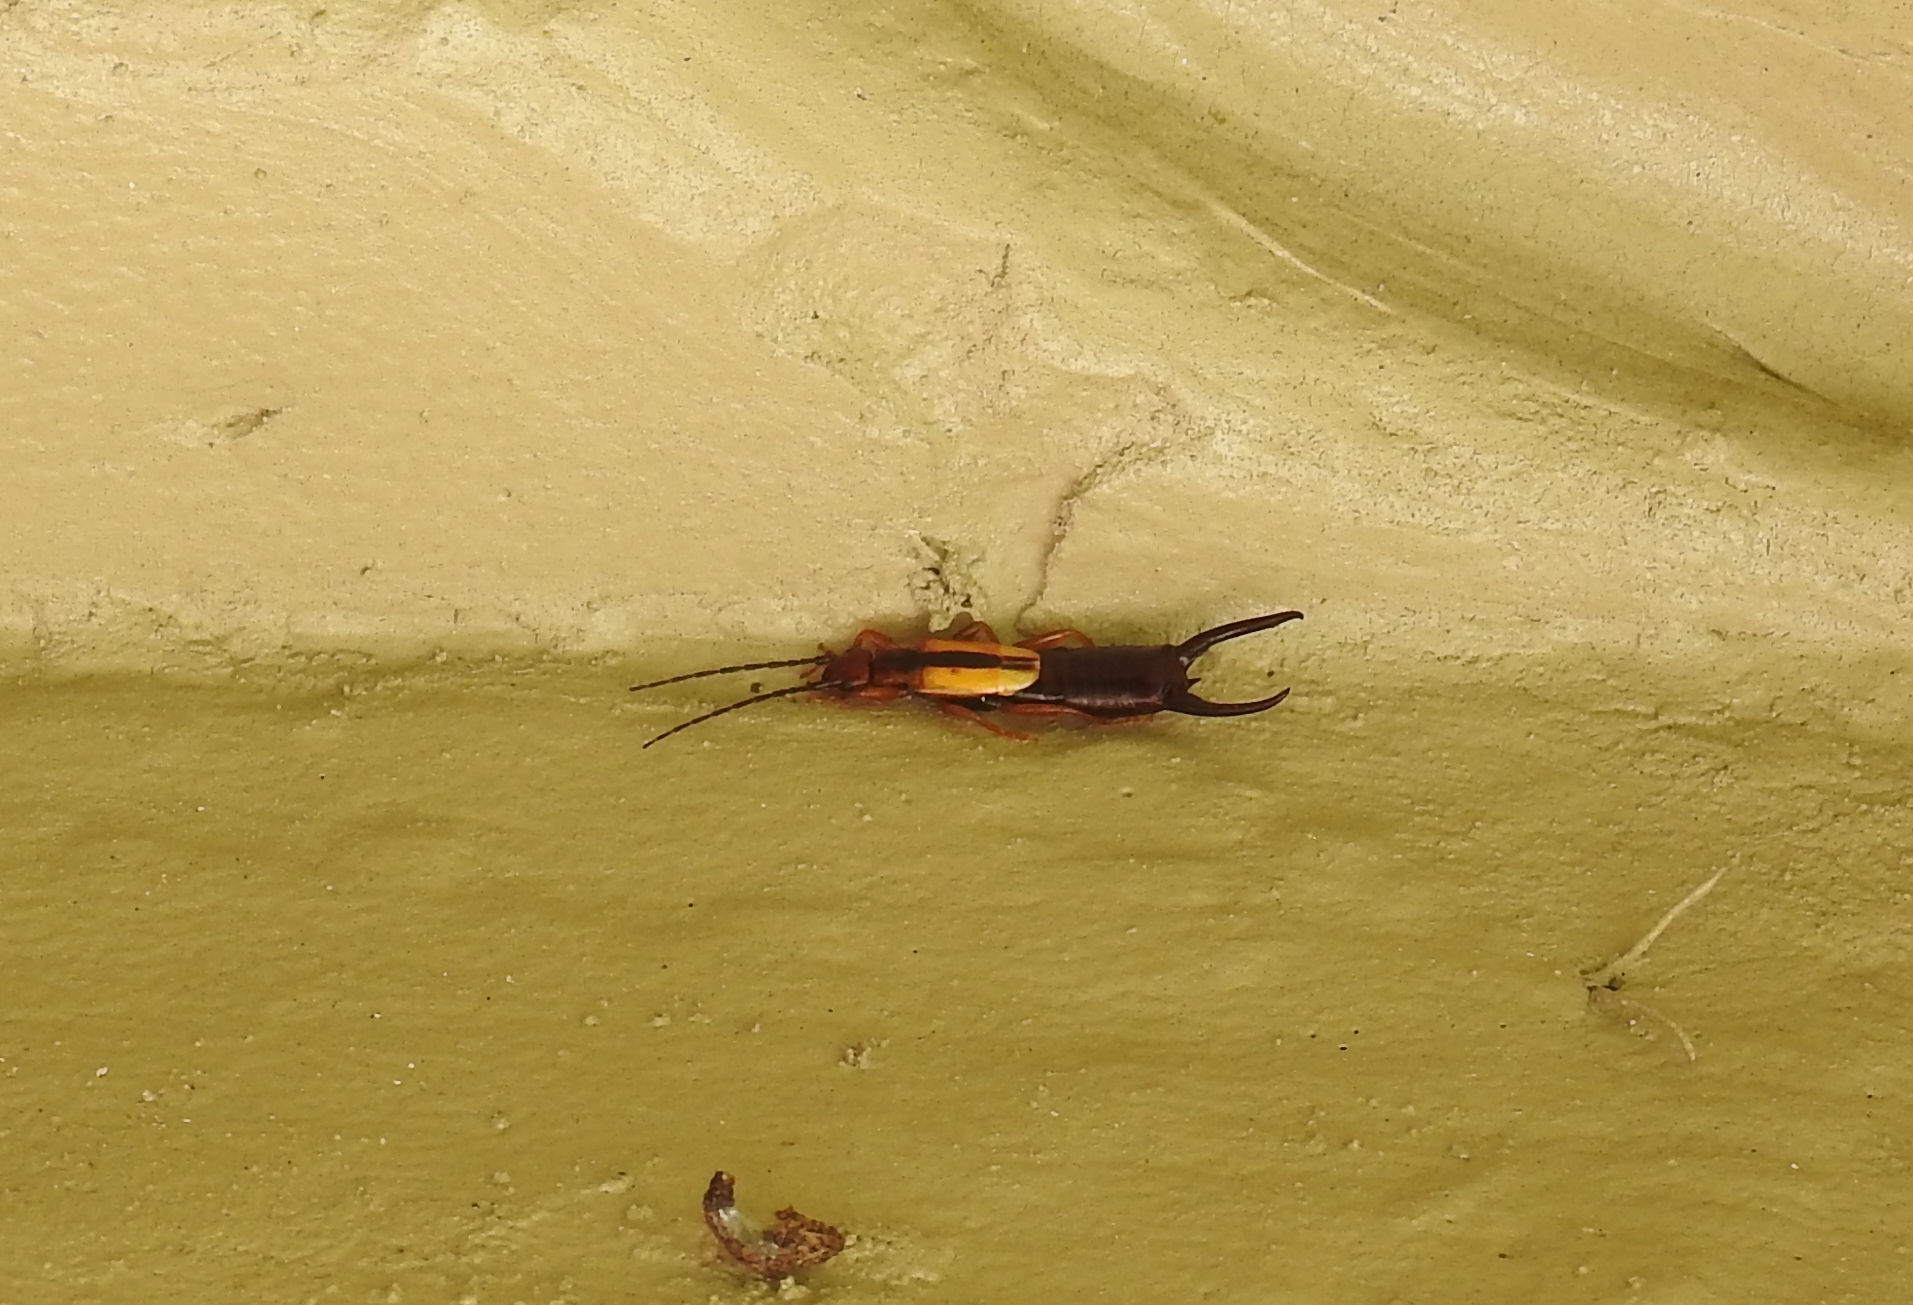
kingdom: Animalia
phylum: Arthropoda
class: Insecta
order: Dermaptera
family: Forficulidae
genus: Doru
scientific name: Doru taeniatum
